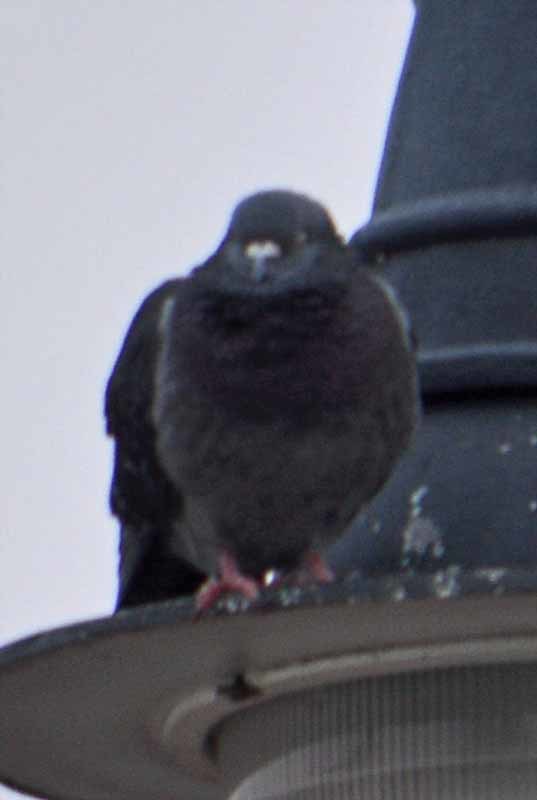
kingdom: Animalia
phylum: Chordata
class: Aves
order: Columbiformes
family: Columbidae
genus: Columba
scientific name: Columba livia
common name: Rock pigeon
